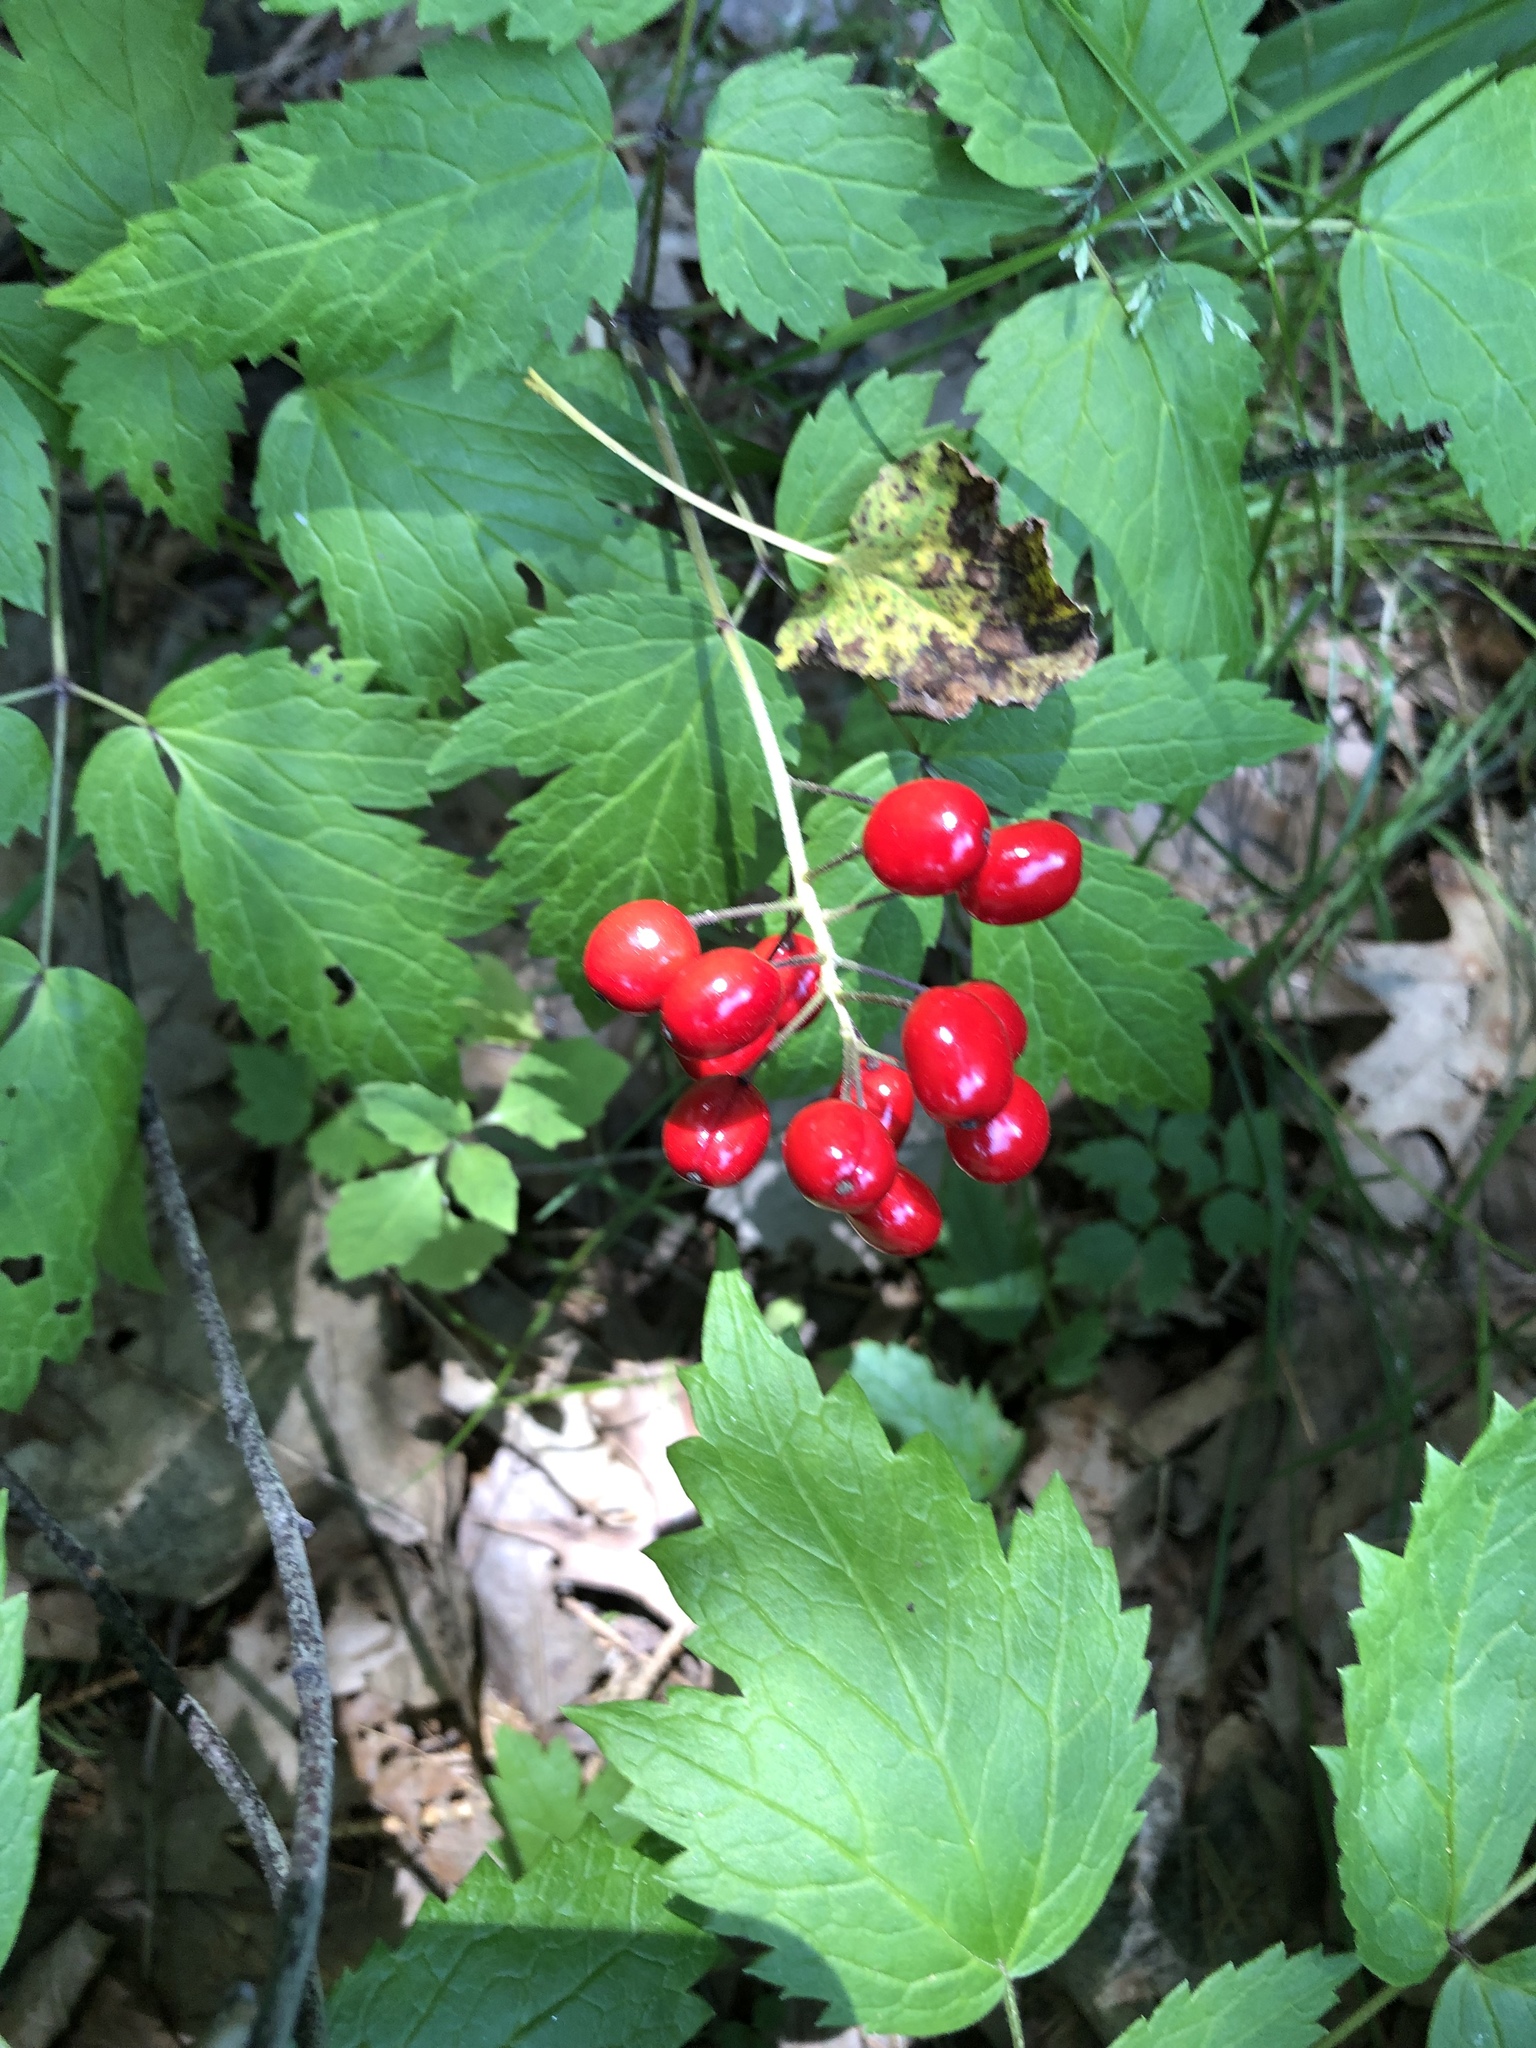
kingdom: Plantae
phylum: Tracheophyta
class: Magnoliopsida
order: Ranunculales
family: Ranunculaceae
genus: Actaea
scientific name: Actaea rubra
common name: Red baneberry
